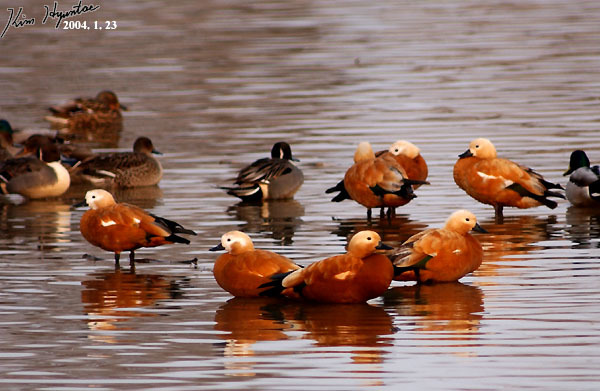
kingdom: Animalia
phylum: Chordata
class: Aves
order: Anseriformes
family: Anatidae
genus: Tadorna
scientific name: Tadorna ferruginea
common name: Ruddy shelduck
